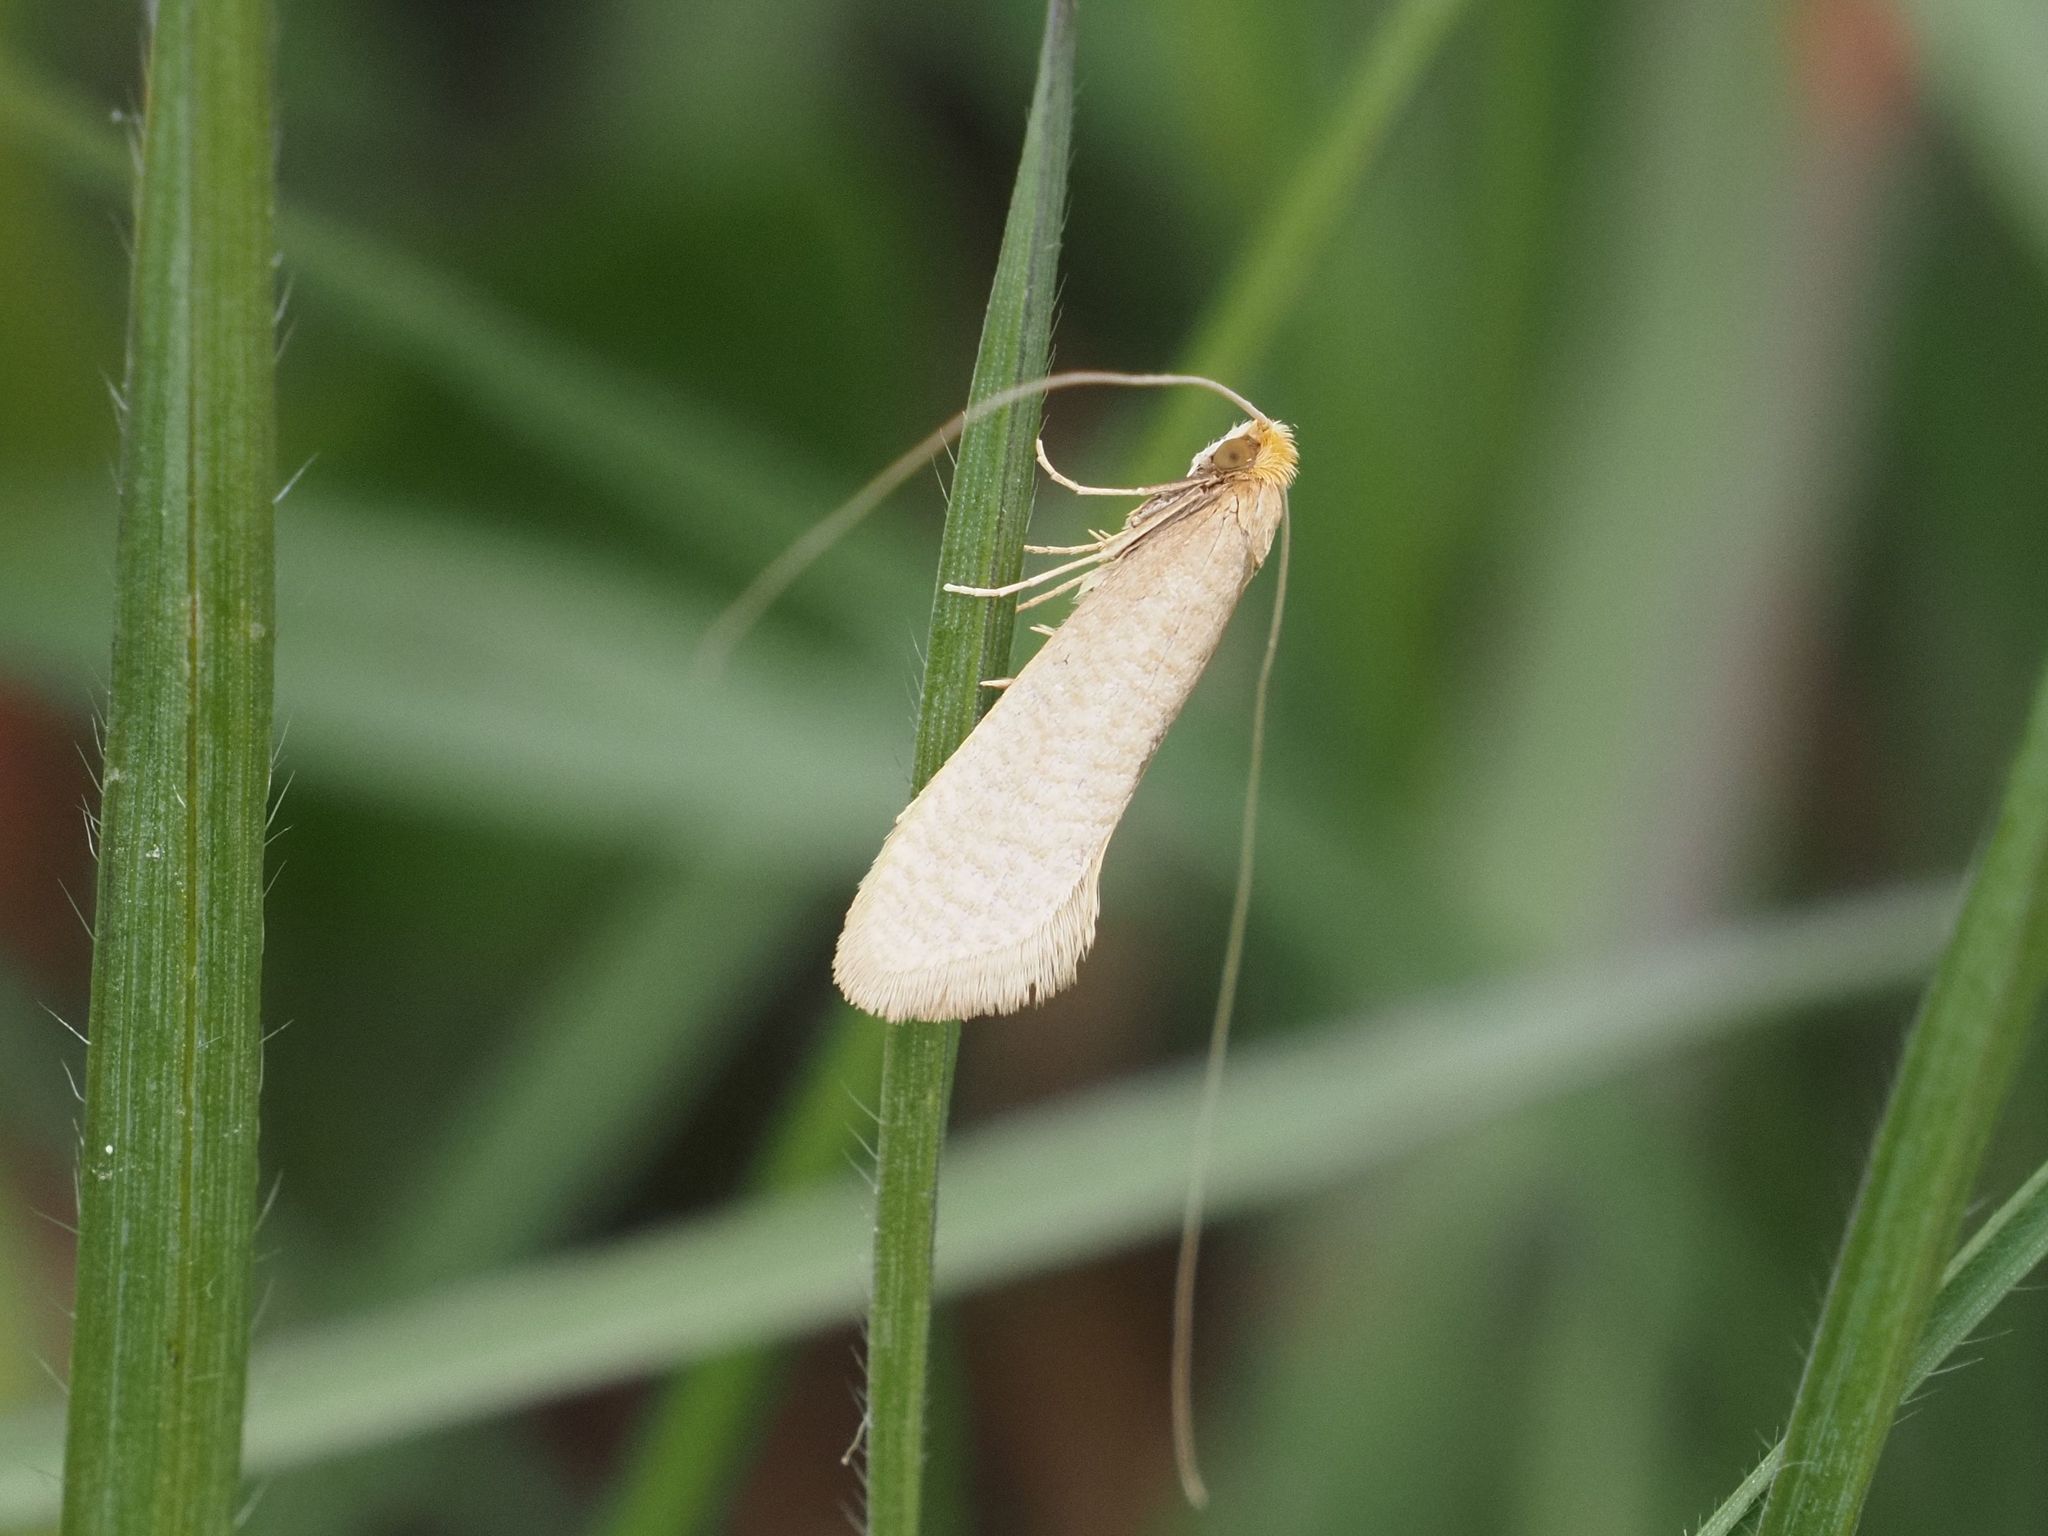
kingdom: Animalia
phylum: Arthropoda
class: Insecta
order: Lepidoptera
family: Adelidae
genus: Nematopogon
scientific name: Nematopogon swammerdamella
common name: Large long-horn
